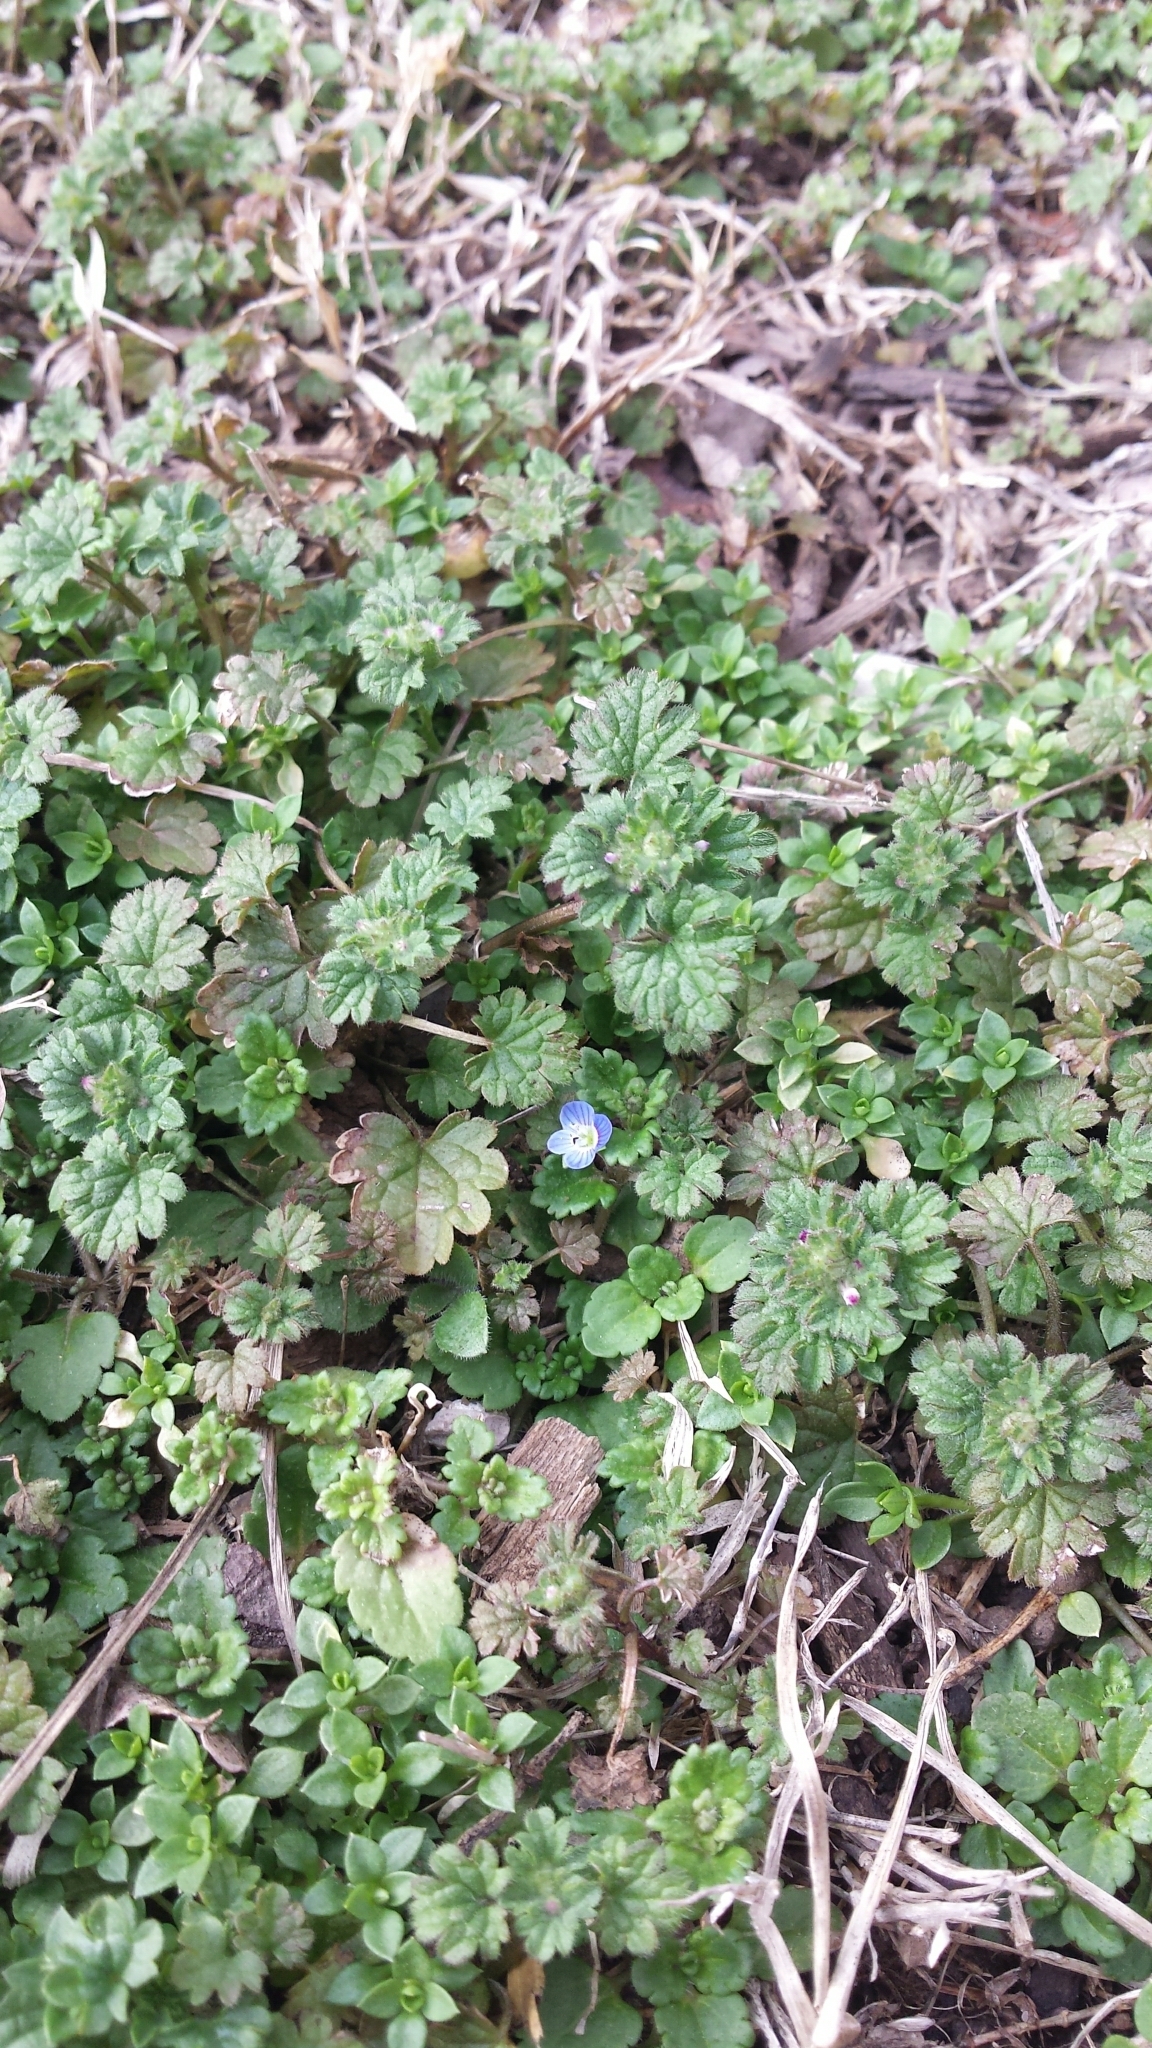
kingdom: Plantae
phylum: Tracheophyta
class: Magnoliopsida
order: Lamiales
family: Plantaginaceae
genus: Veronica
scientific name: Veronica polita
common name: Grey field-speedwell
